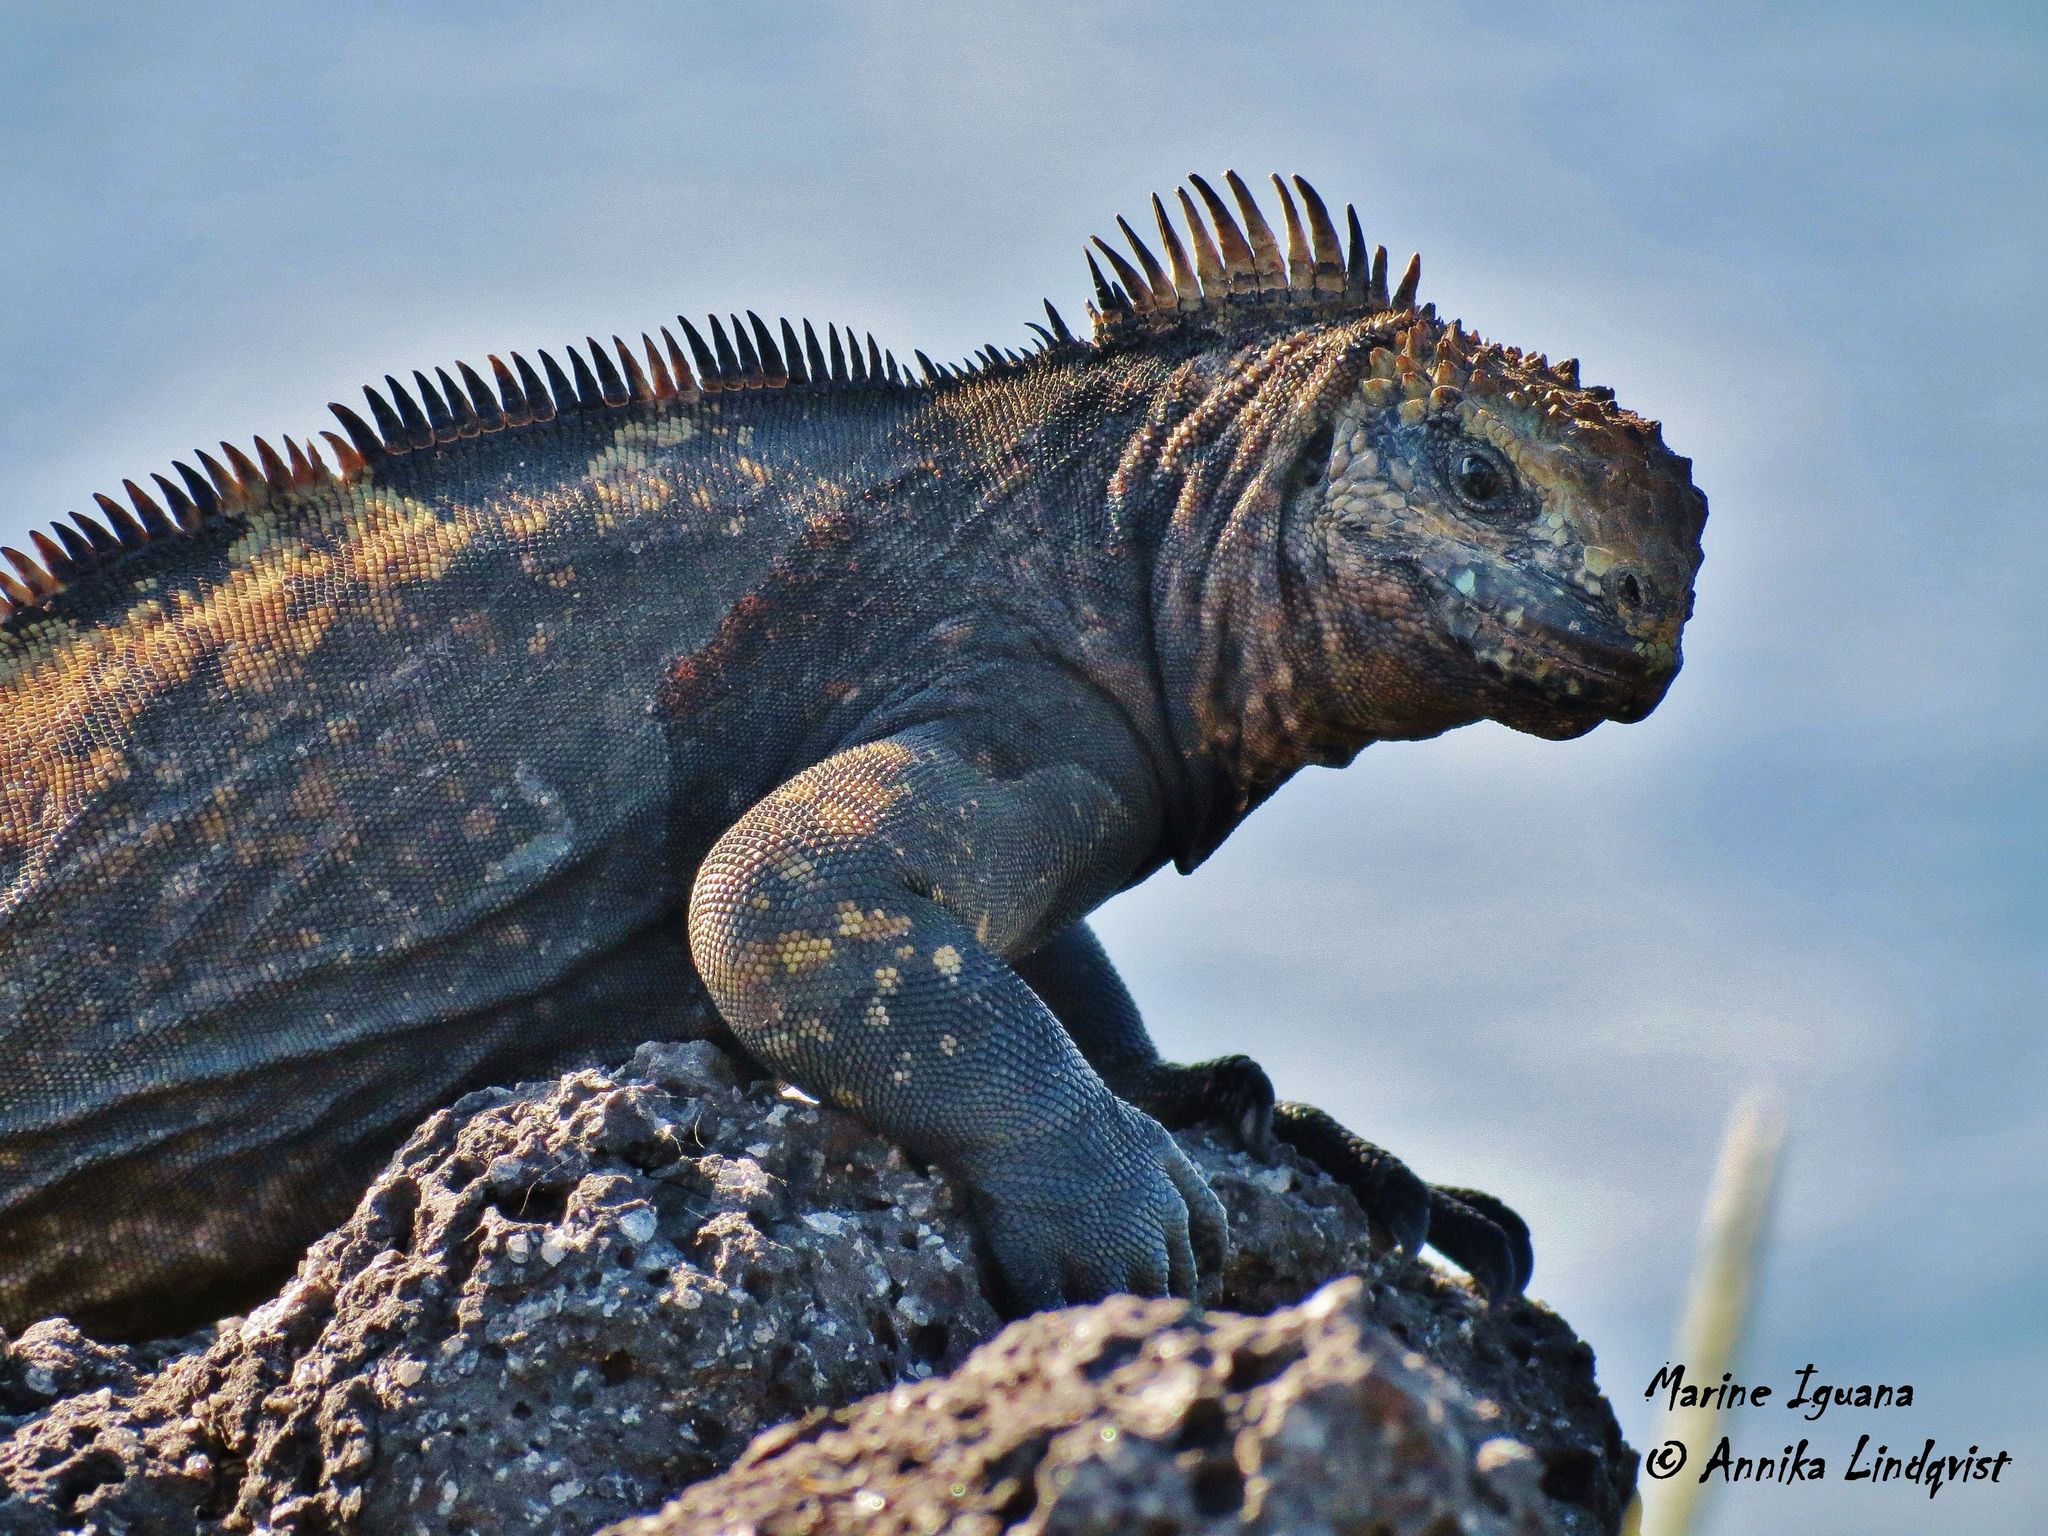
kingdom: Animalia
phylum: Chordata
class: Squamata
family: Iguanidae
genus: Amblyrhynchus
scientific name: Amblyrhynchus cristatus
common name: Marine iguana
